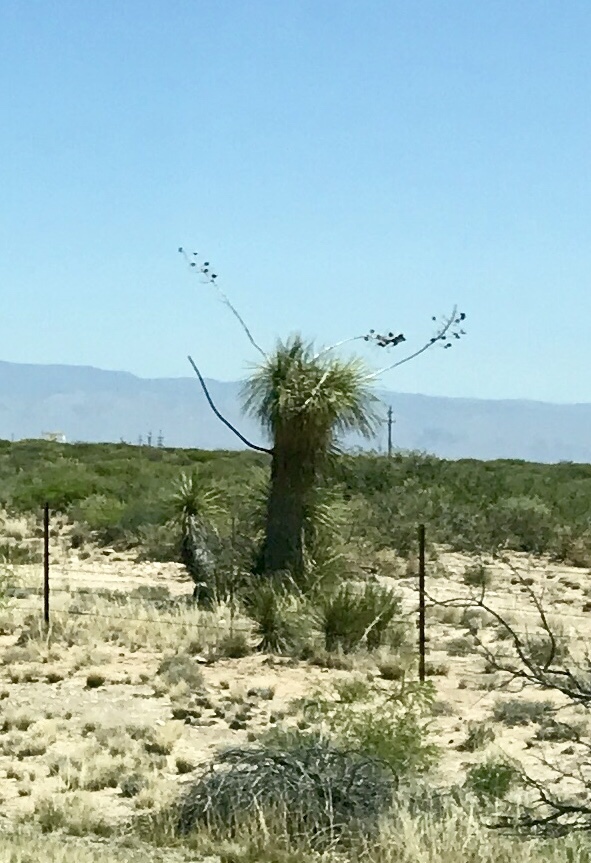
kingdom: Plantae
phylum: Tracheophyta
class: Liliopsida
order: Asparagales
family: Asparagaceae
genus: Yucca
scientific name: Yucca elata
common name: Palmella
